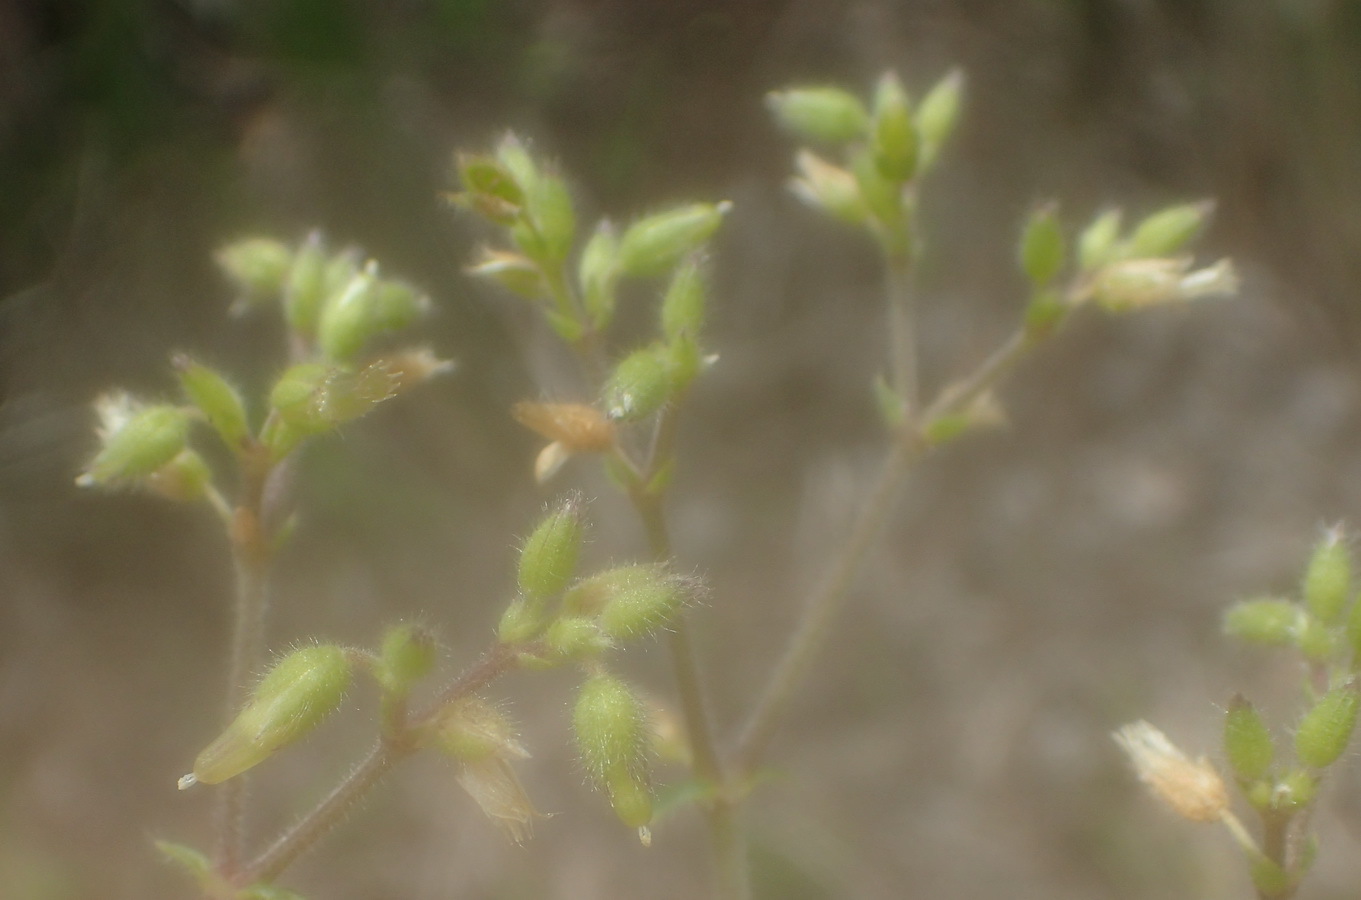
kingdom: Plantae
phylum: Tracheophyta
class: Magnoliopsida
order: Caryophyllales
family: Caryophyllaceae
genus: Cerastium
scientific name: Cerastium capense
